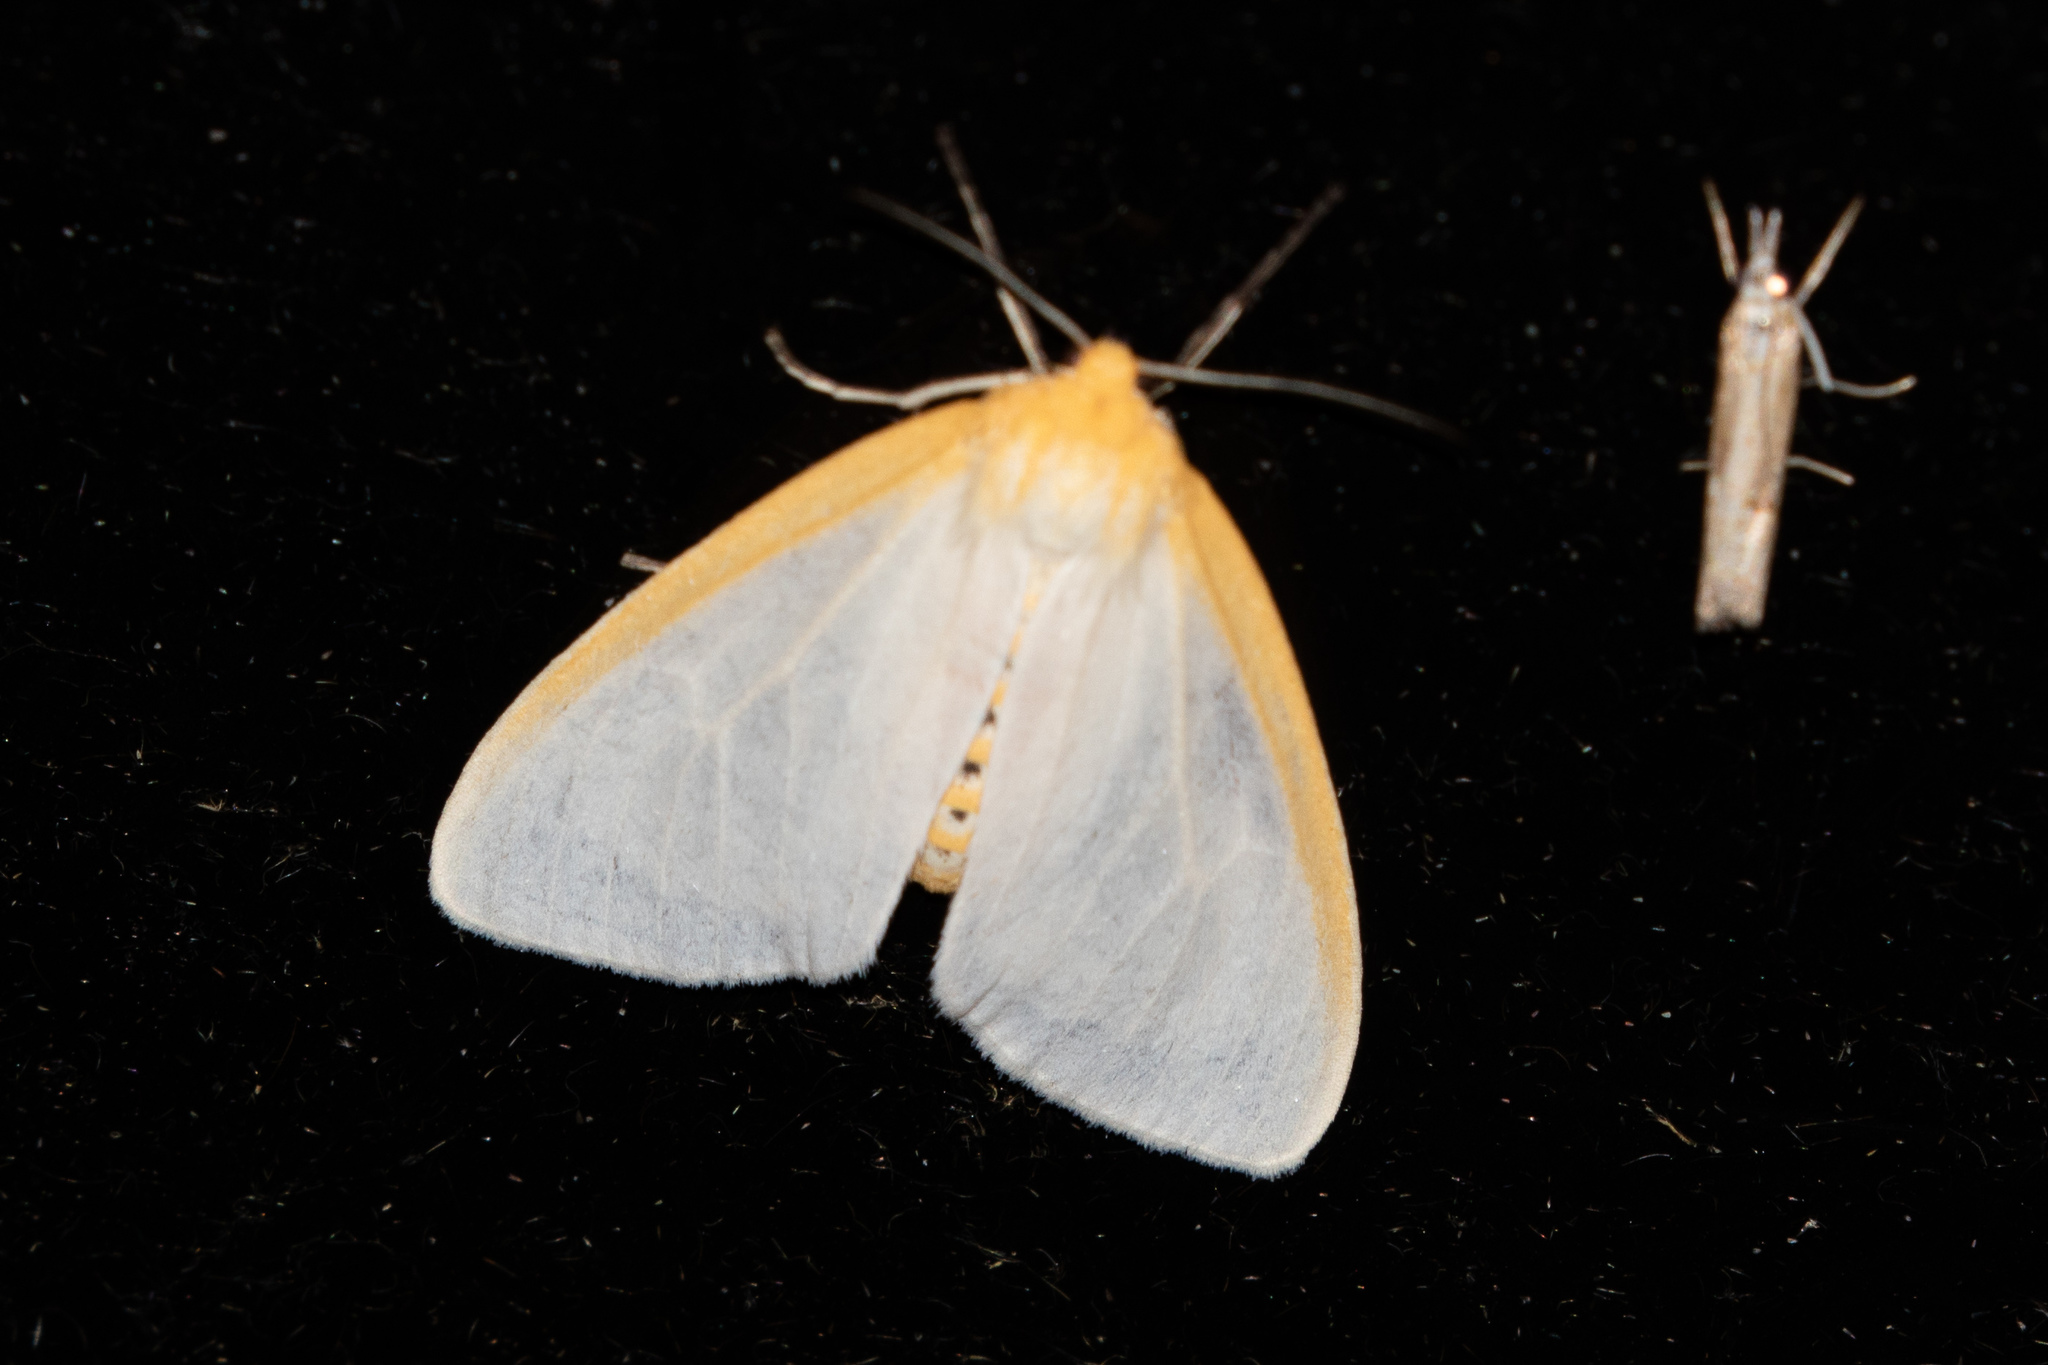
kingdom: Animalia
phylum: Arthropoda
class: Insecta
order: Lepidoptera
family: Erebidae
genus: Cycnia
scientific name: Cycnia tenera
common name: Delicate cycnia moth
